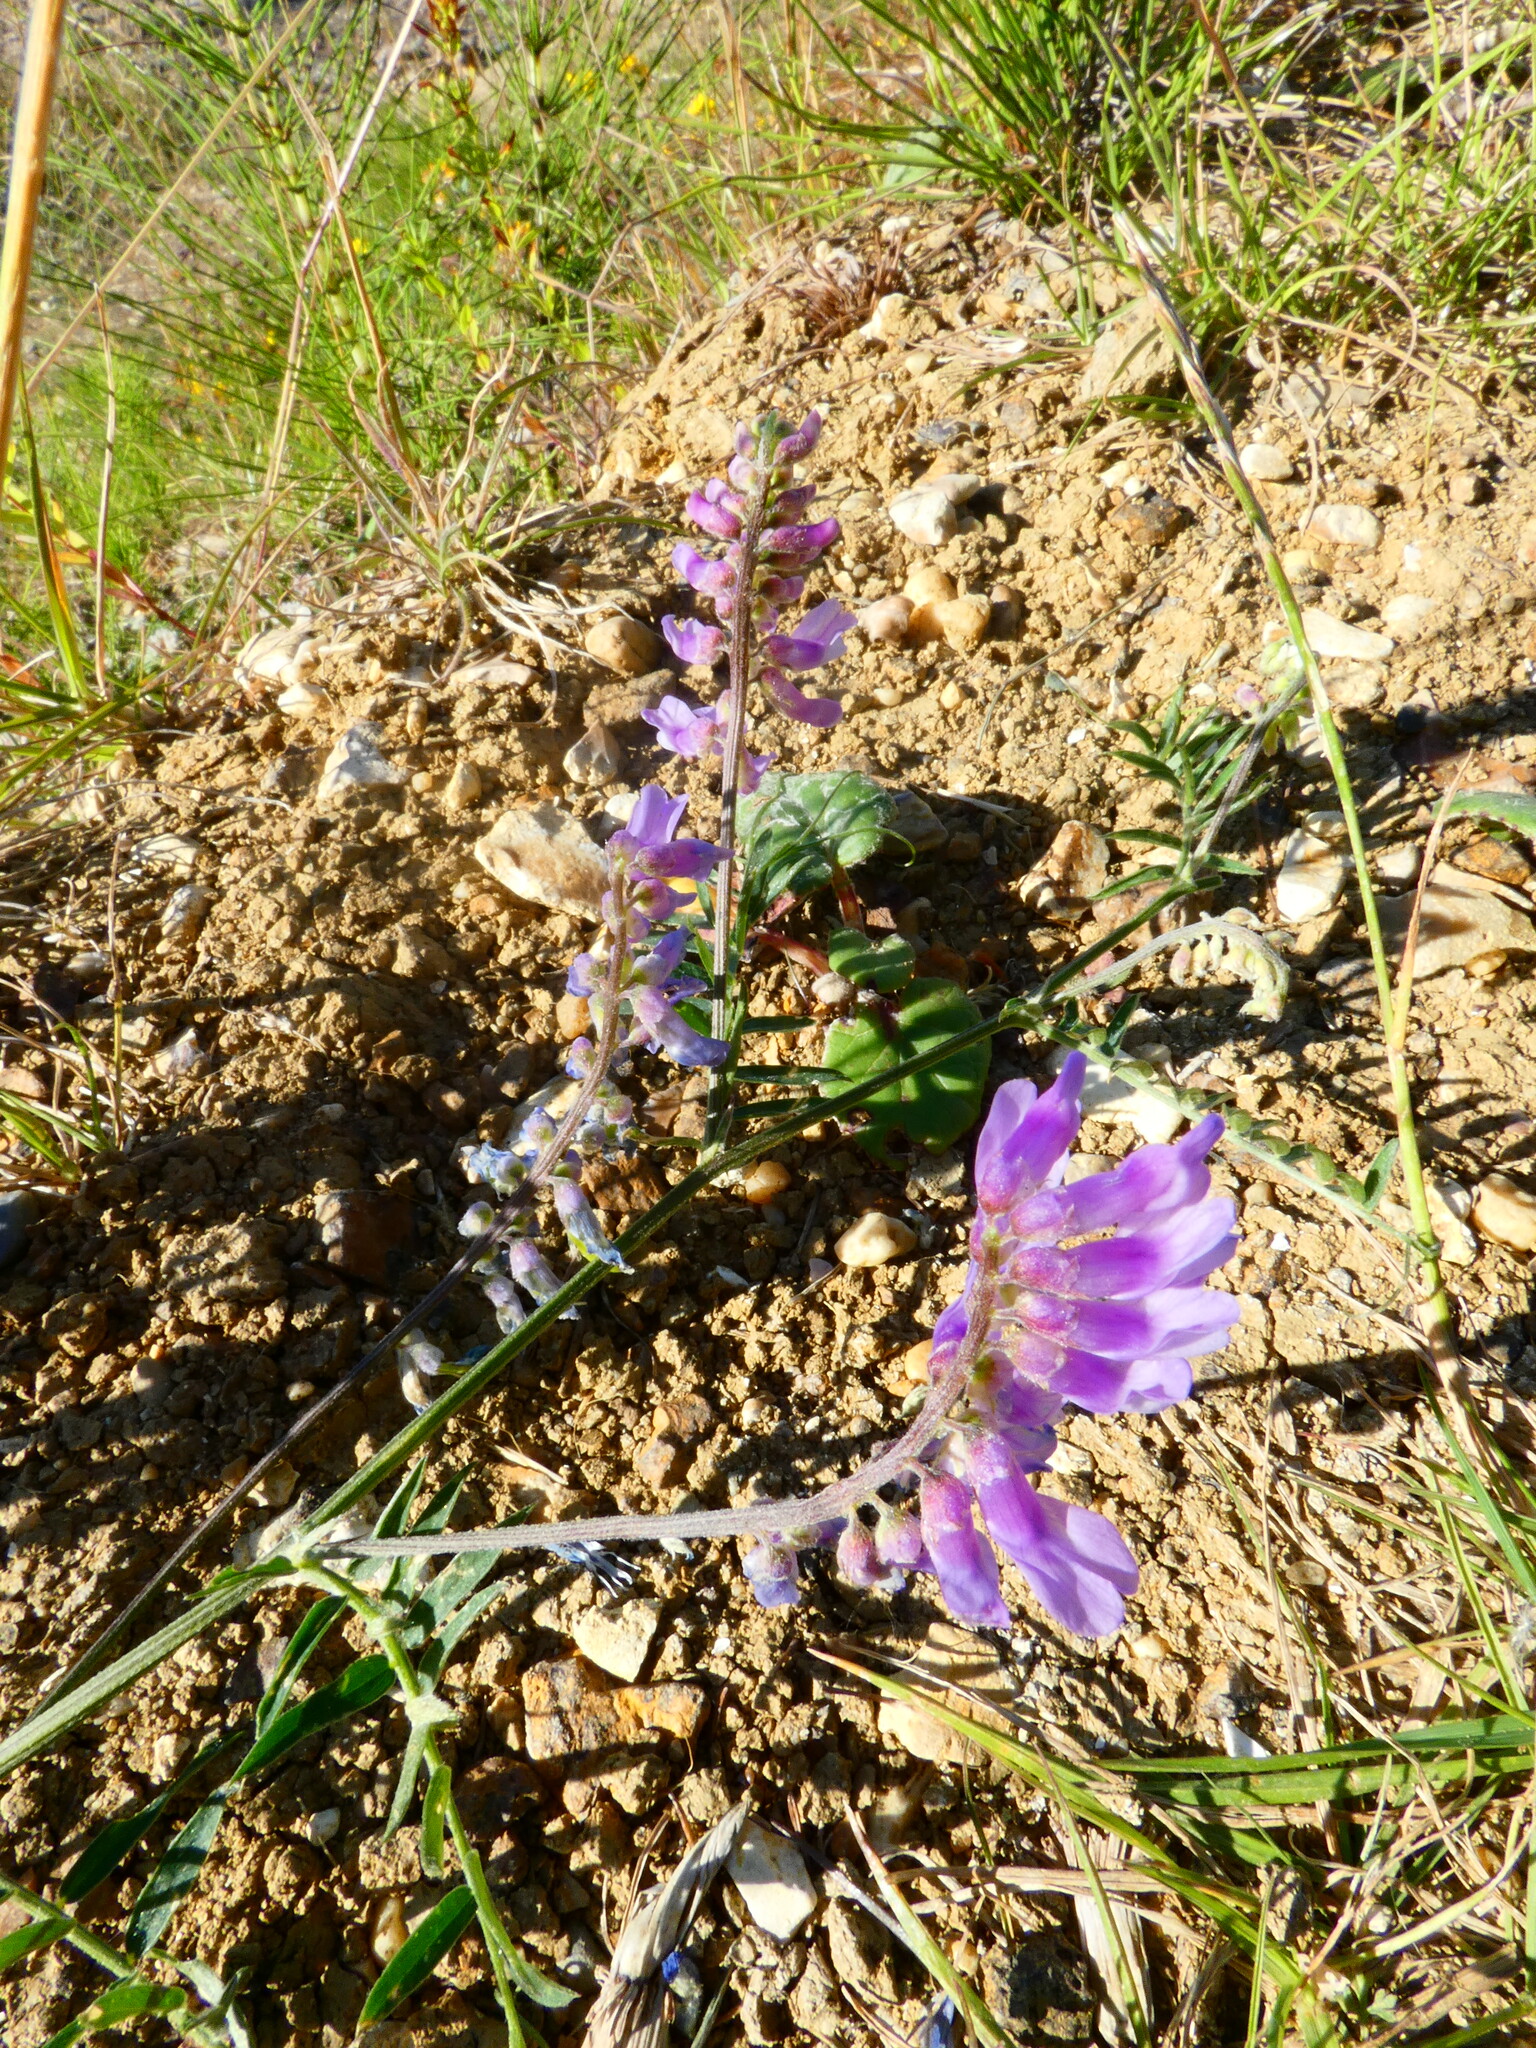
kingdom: Plantae
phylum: Tracheophyta
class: Magnoliopsida
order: Fabales
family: Fabaceae
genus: Vicia
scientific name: Vicia cracca
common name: Bird vetch
